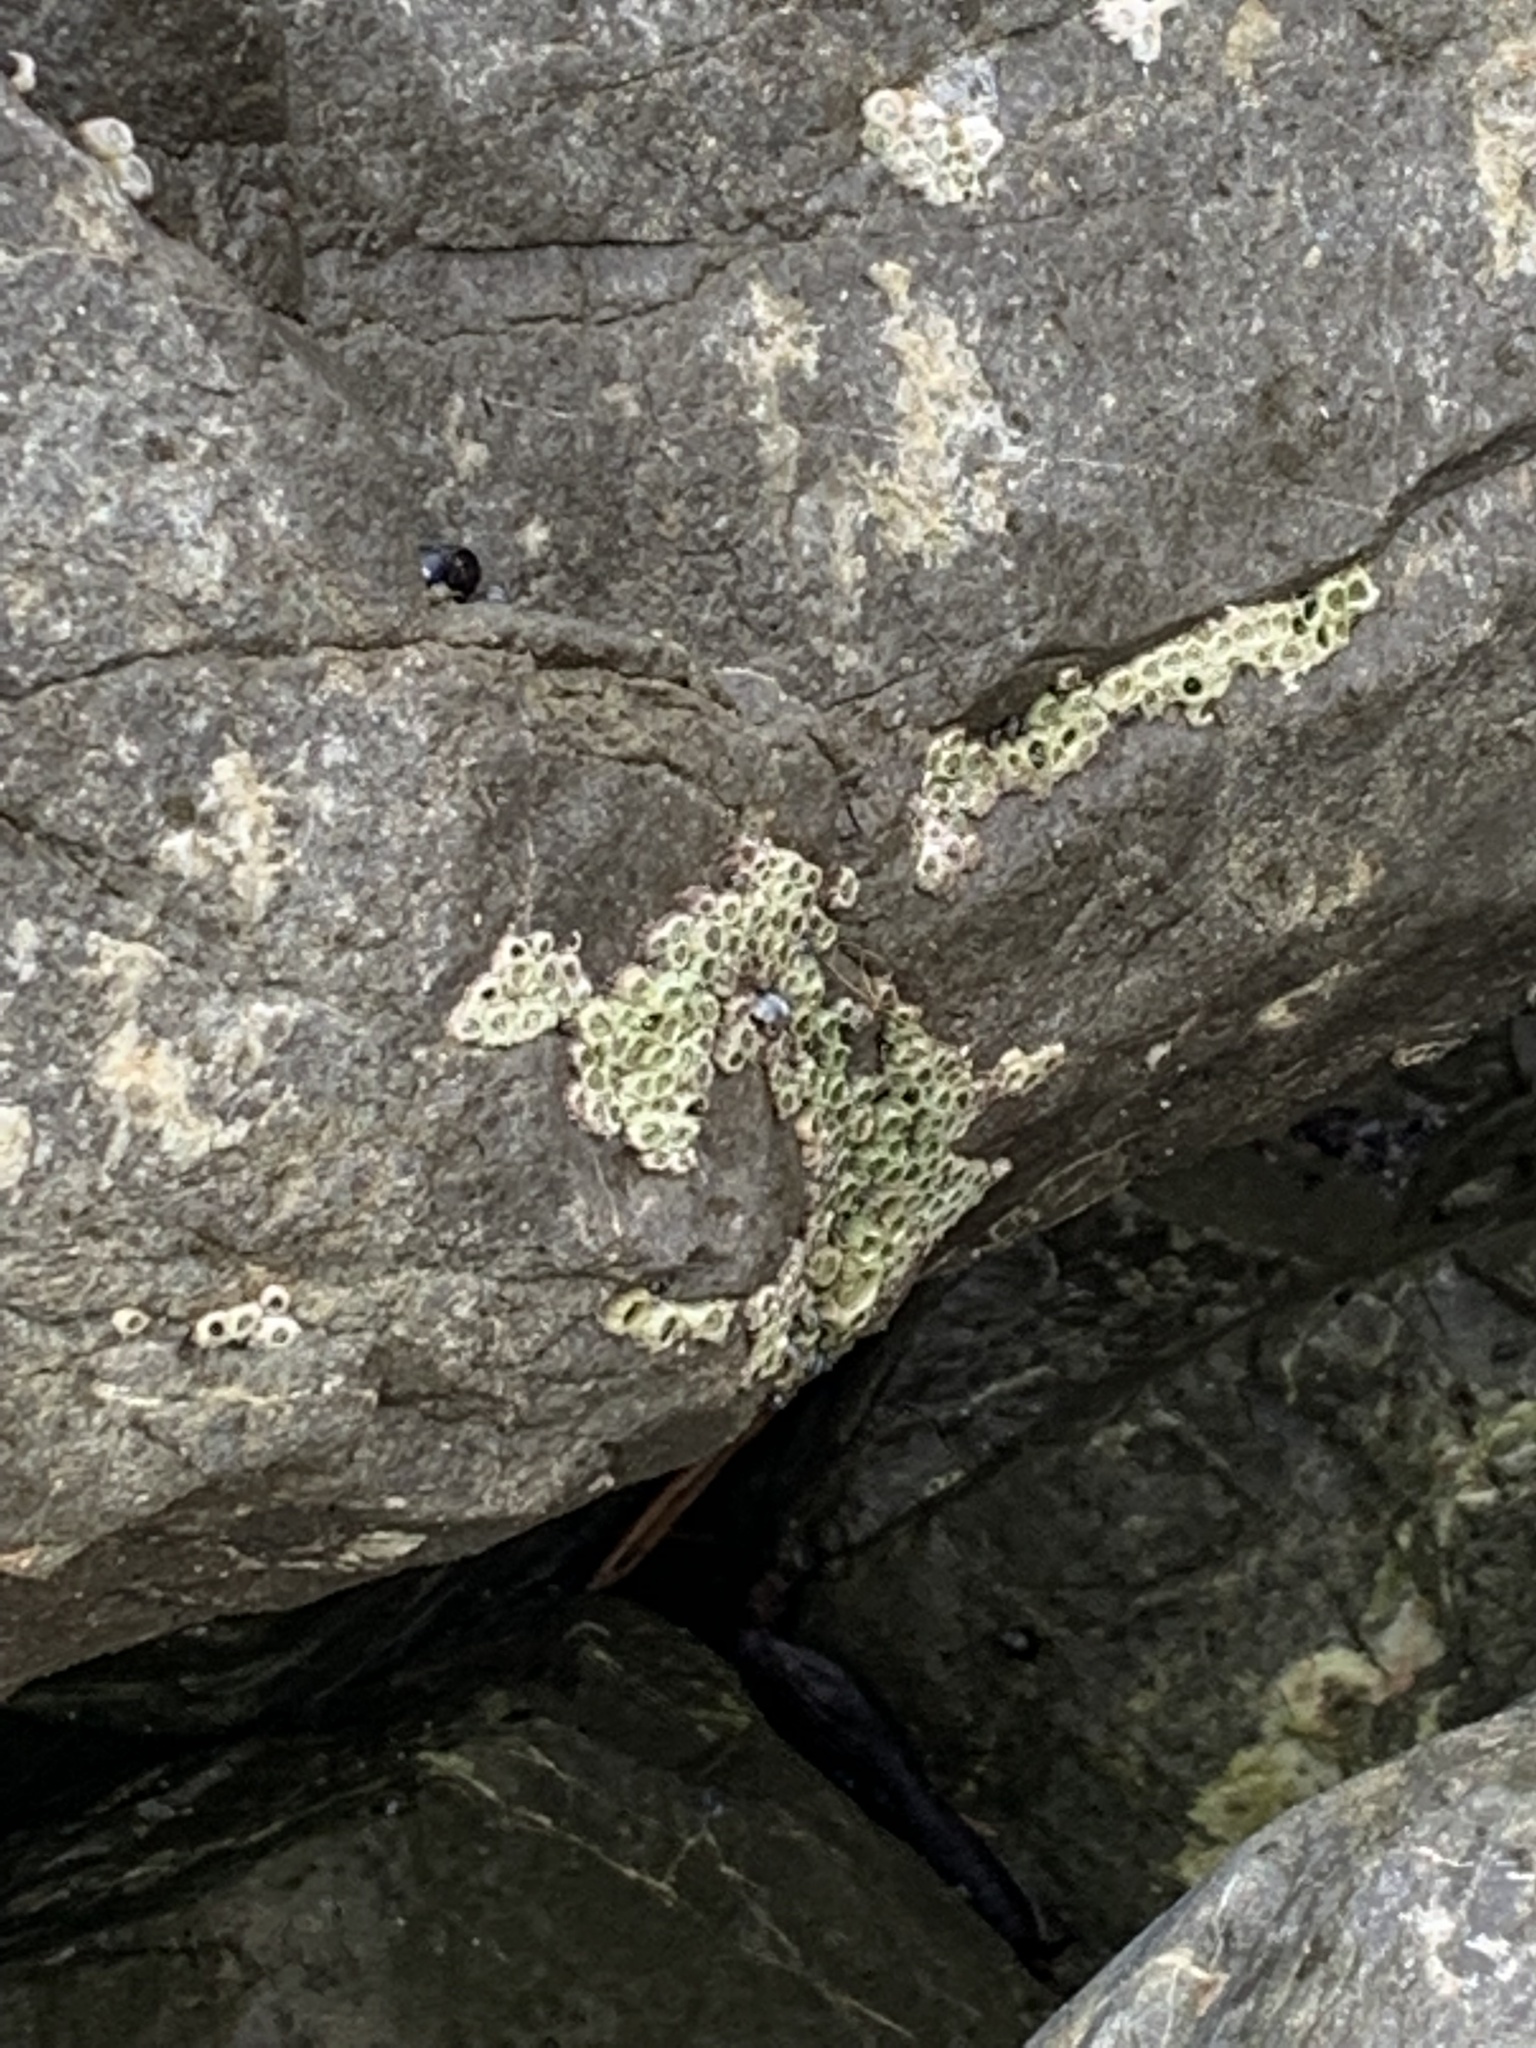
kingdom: Animalia
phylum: Arthropoda
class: Maxillopoda
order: Sessilia
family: Chthamalidae
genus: Chamaesipho
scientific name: Chamaesipho columna
